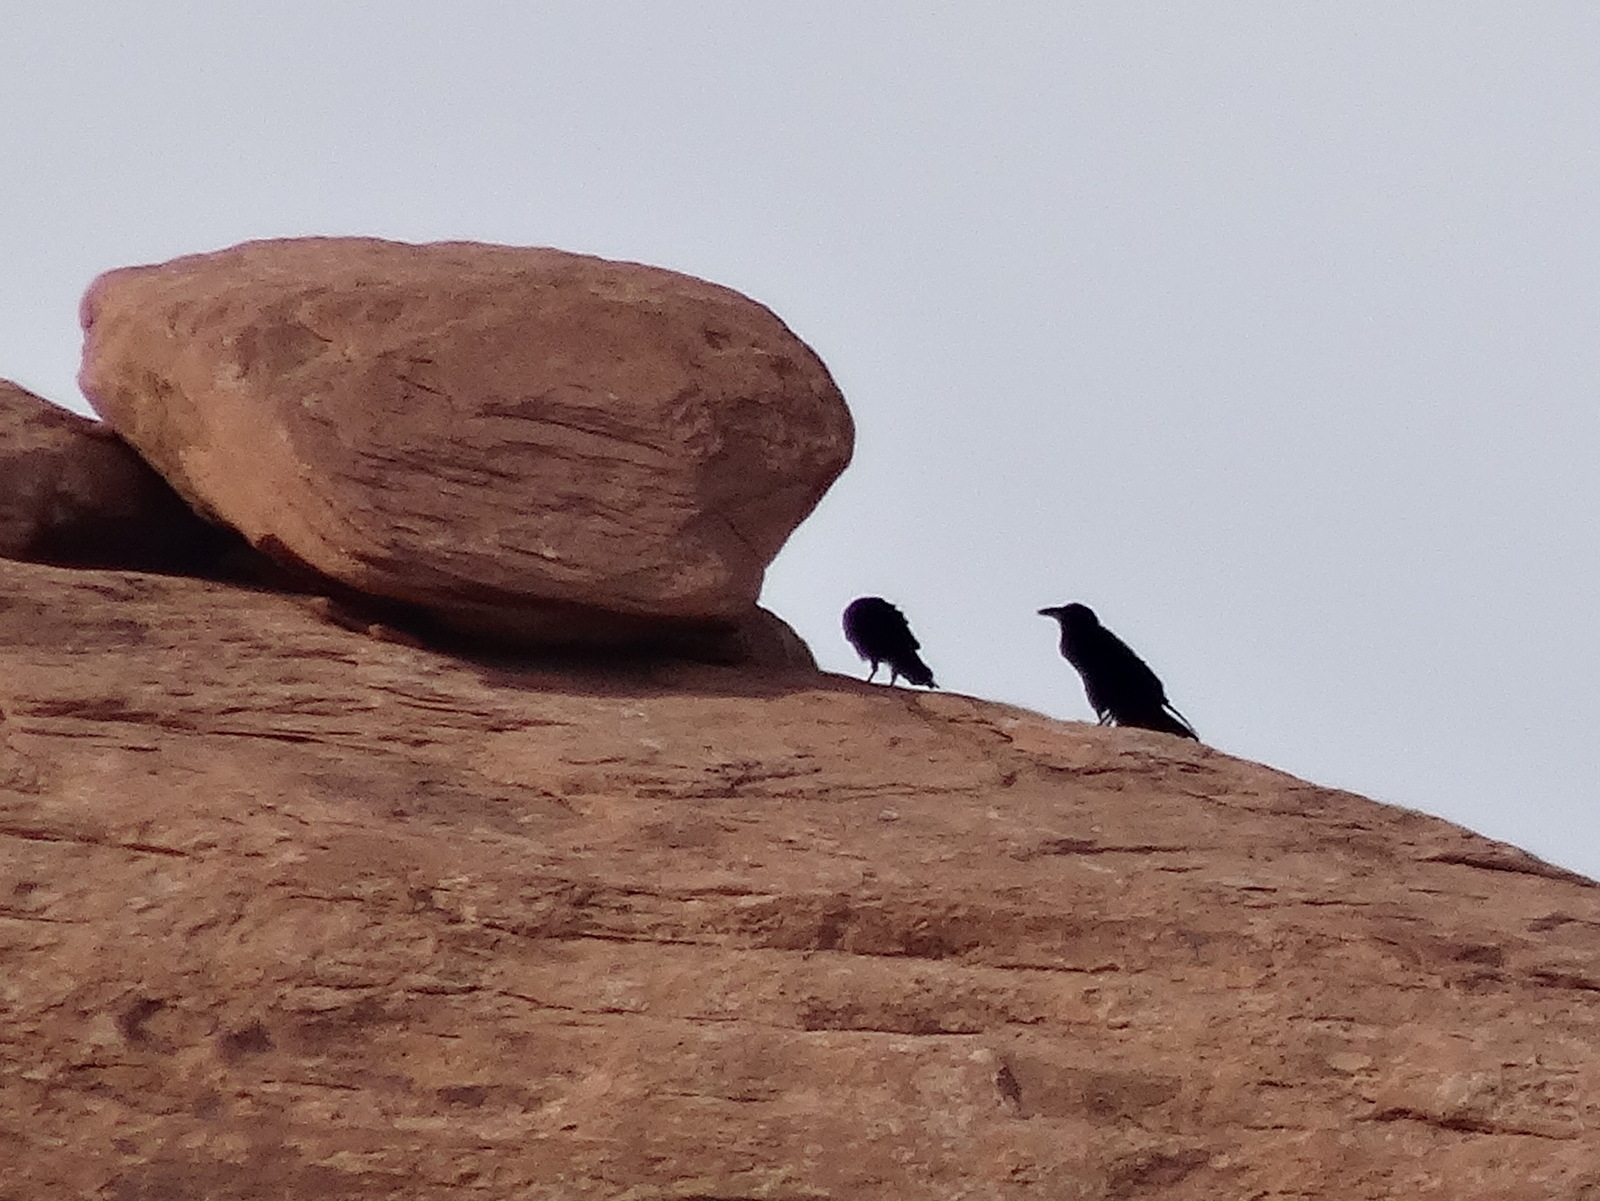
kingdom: Animalia
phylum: Chordata
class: Aves
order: Passeriformes
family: Corvidae
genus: Corvus
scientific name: Corvus corax
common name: Common raven
